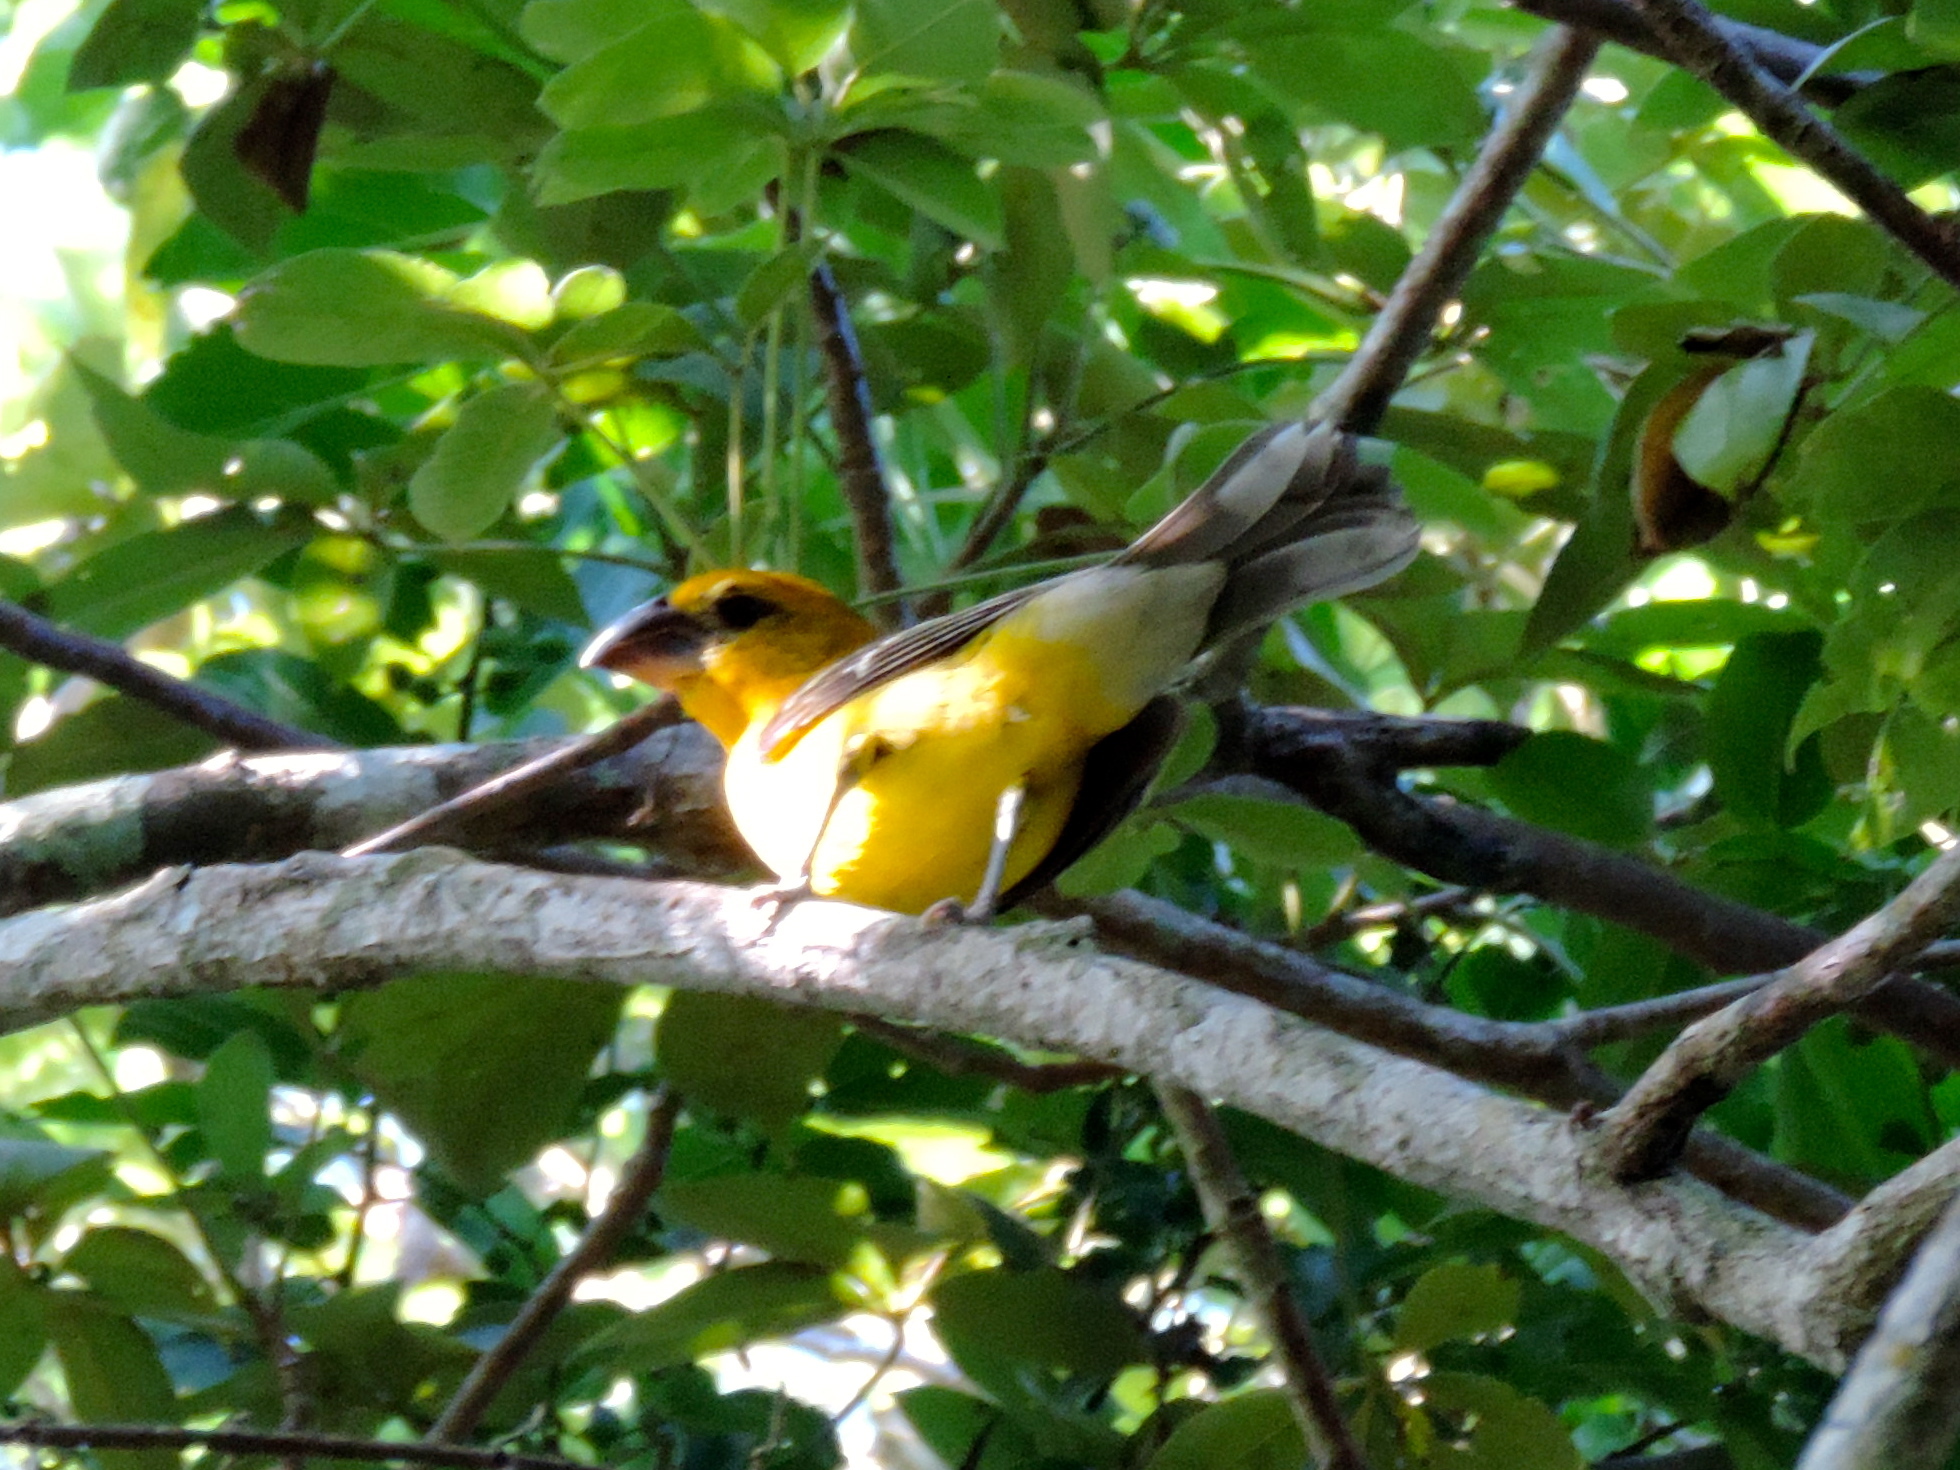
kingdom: Animalia
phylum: Chordata
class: Aves
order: Passeriformes
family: Cardinalidae
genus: Pheucticus
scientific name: Pheucticus chrysopeplus
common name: Yellow grosbeak
